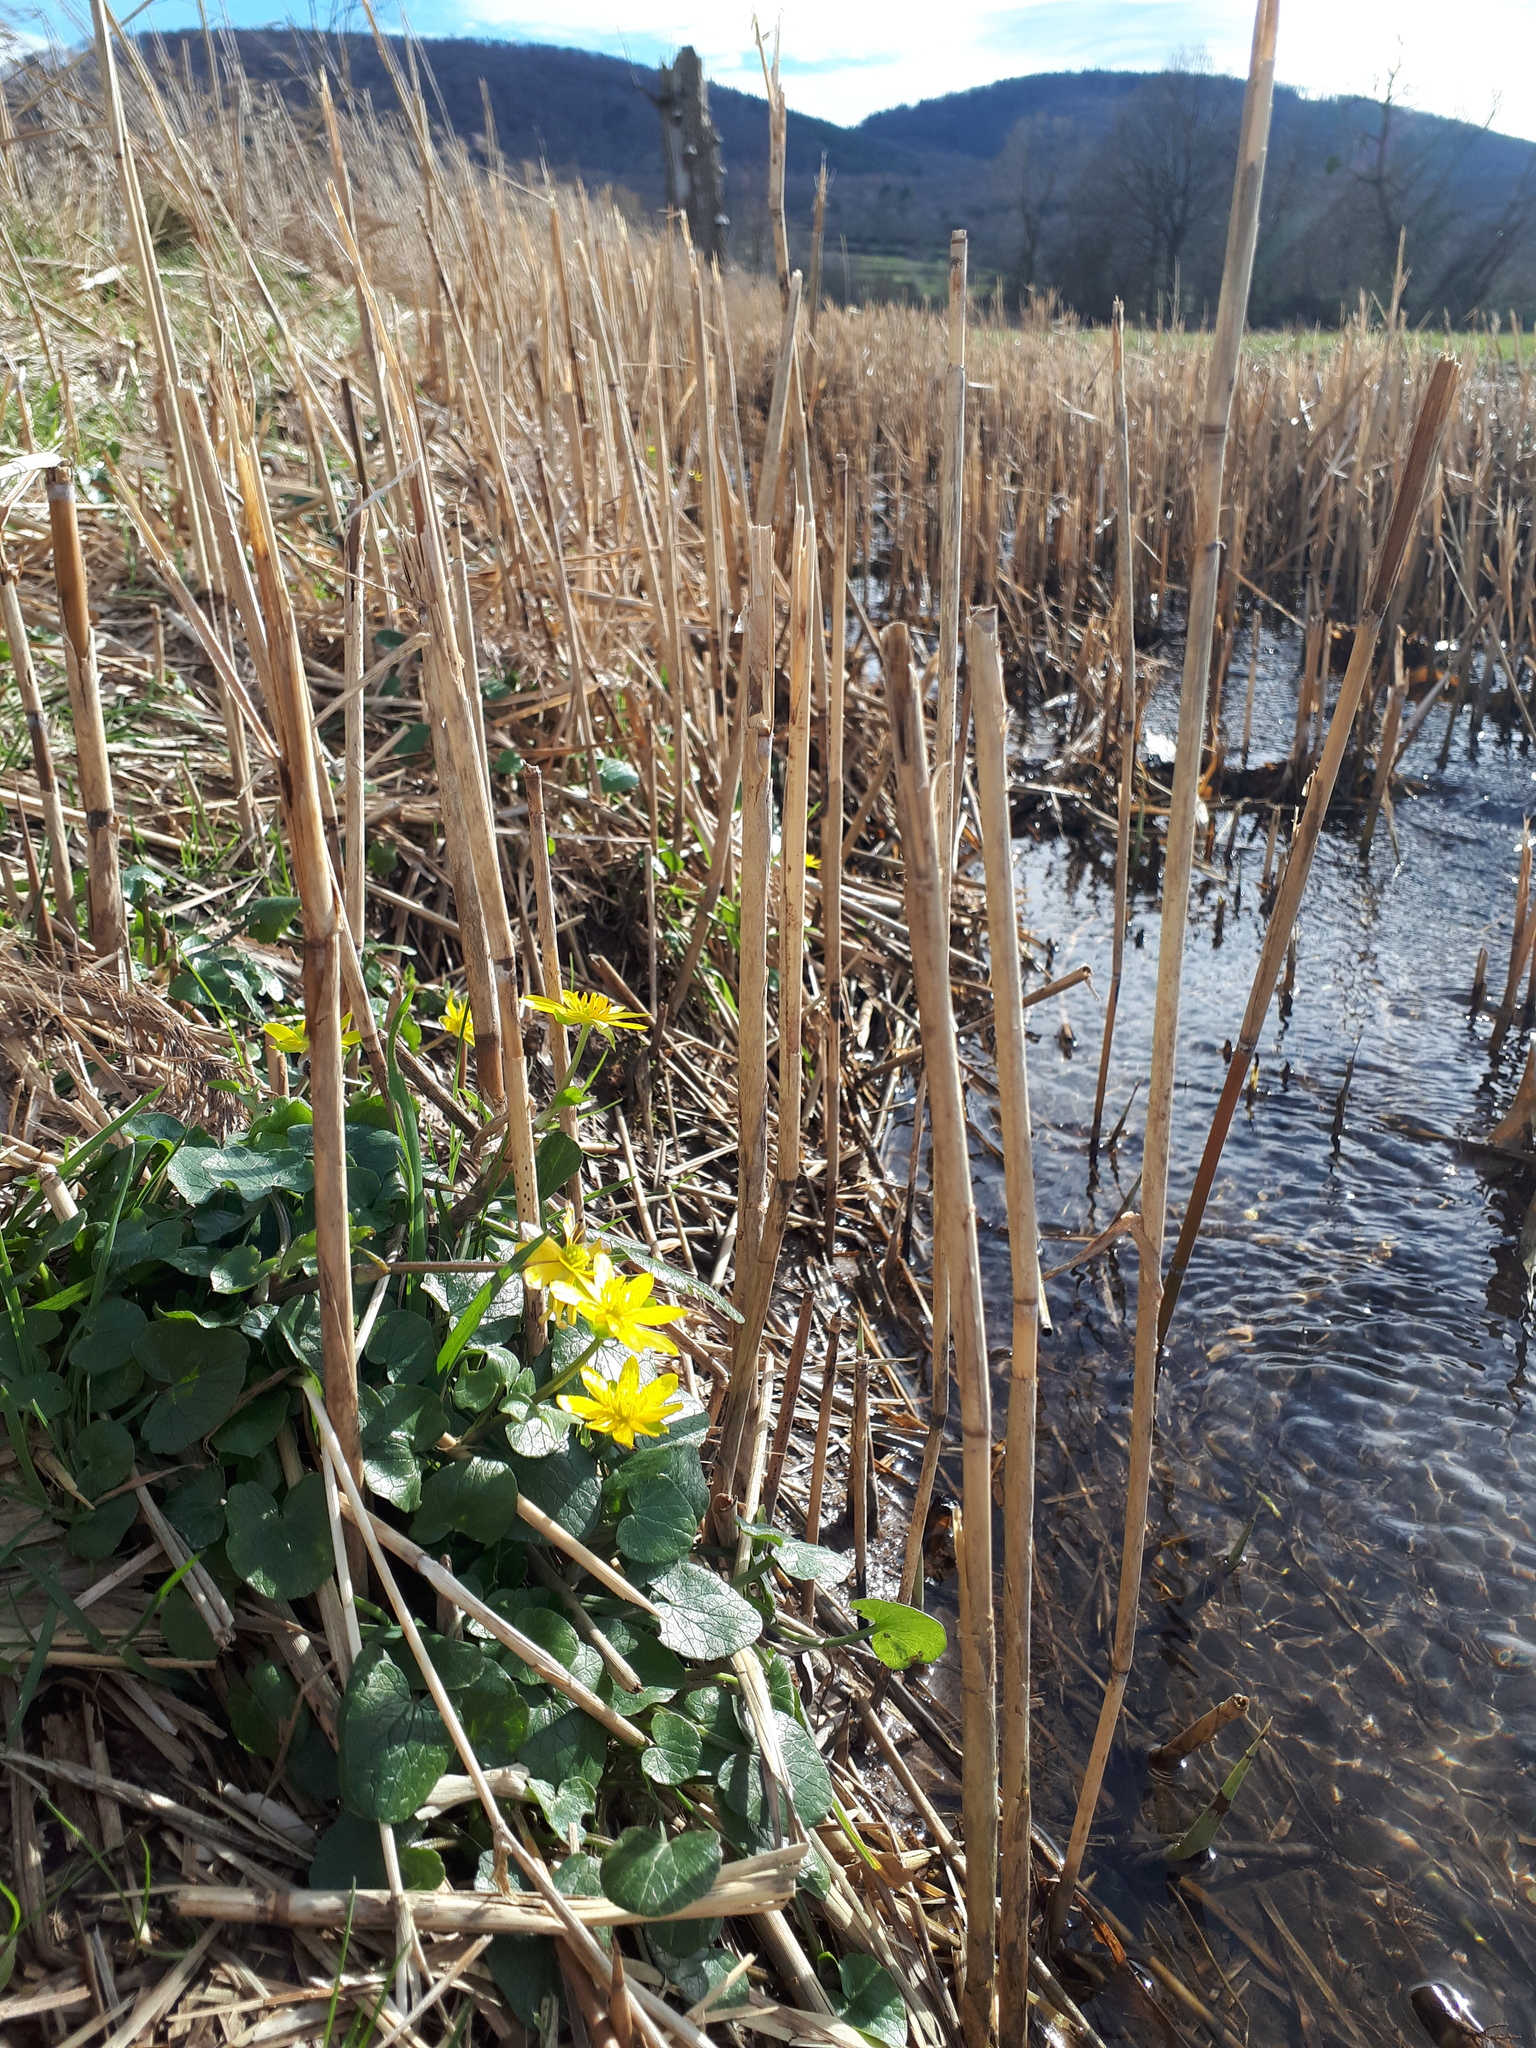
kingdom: Plantae
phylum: Tracheophyta
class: Magnoliopsida
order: Ranunculales
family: Ranunculaceae
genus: Ficaria
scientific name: Ficaria verna
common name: Lesser celandine
